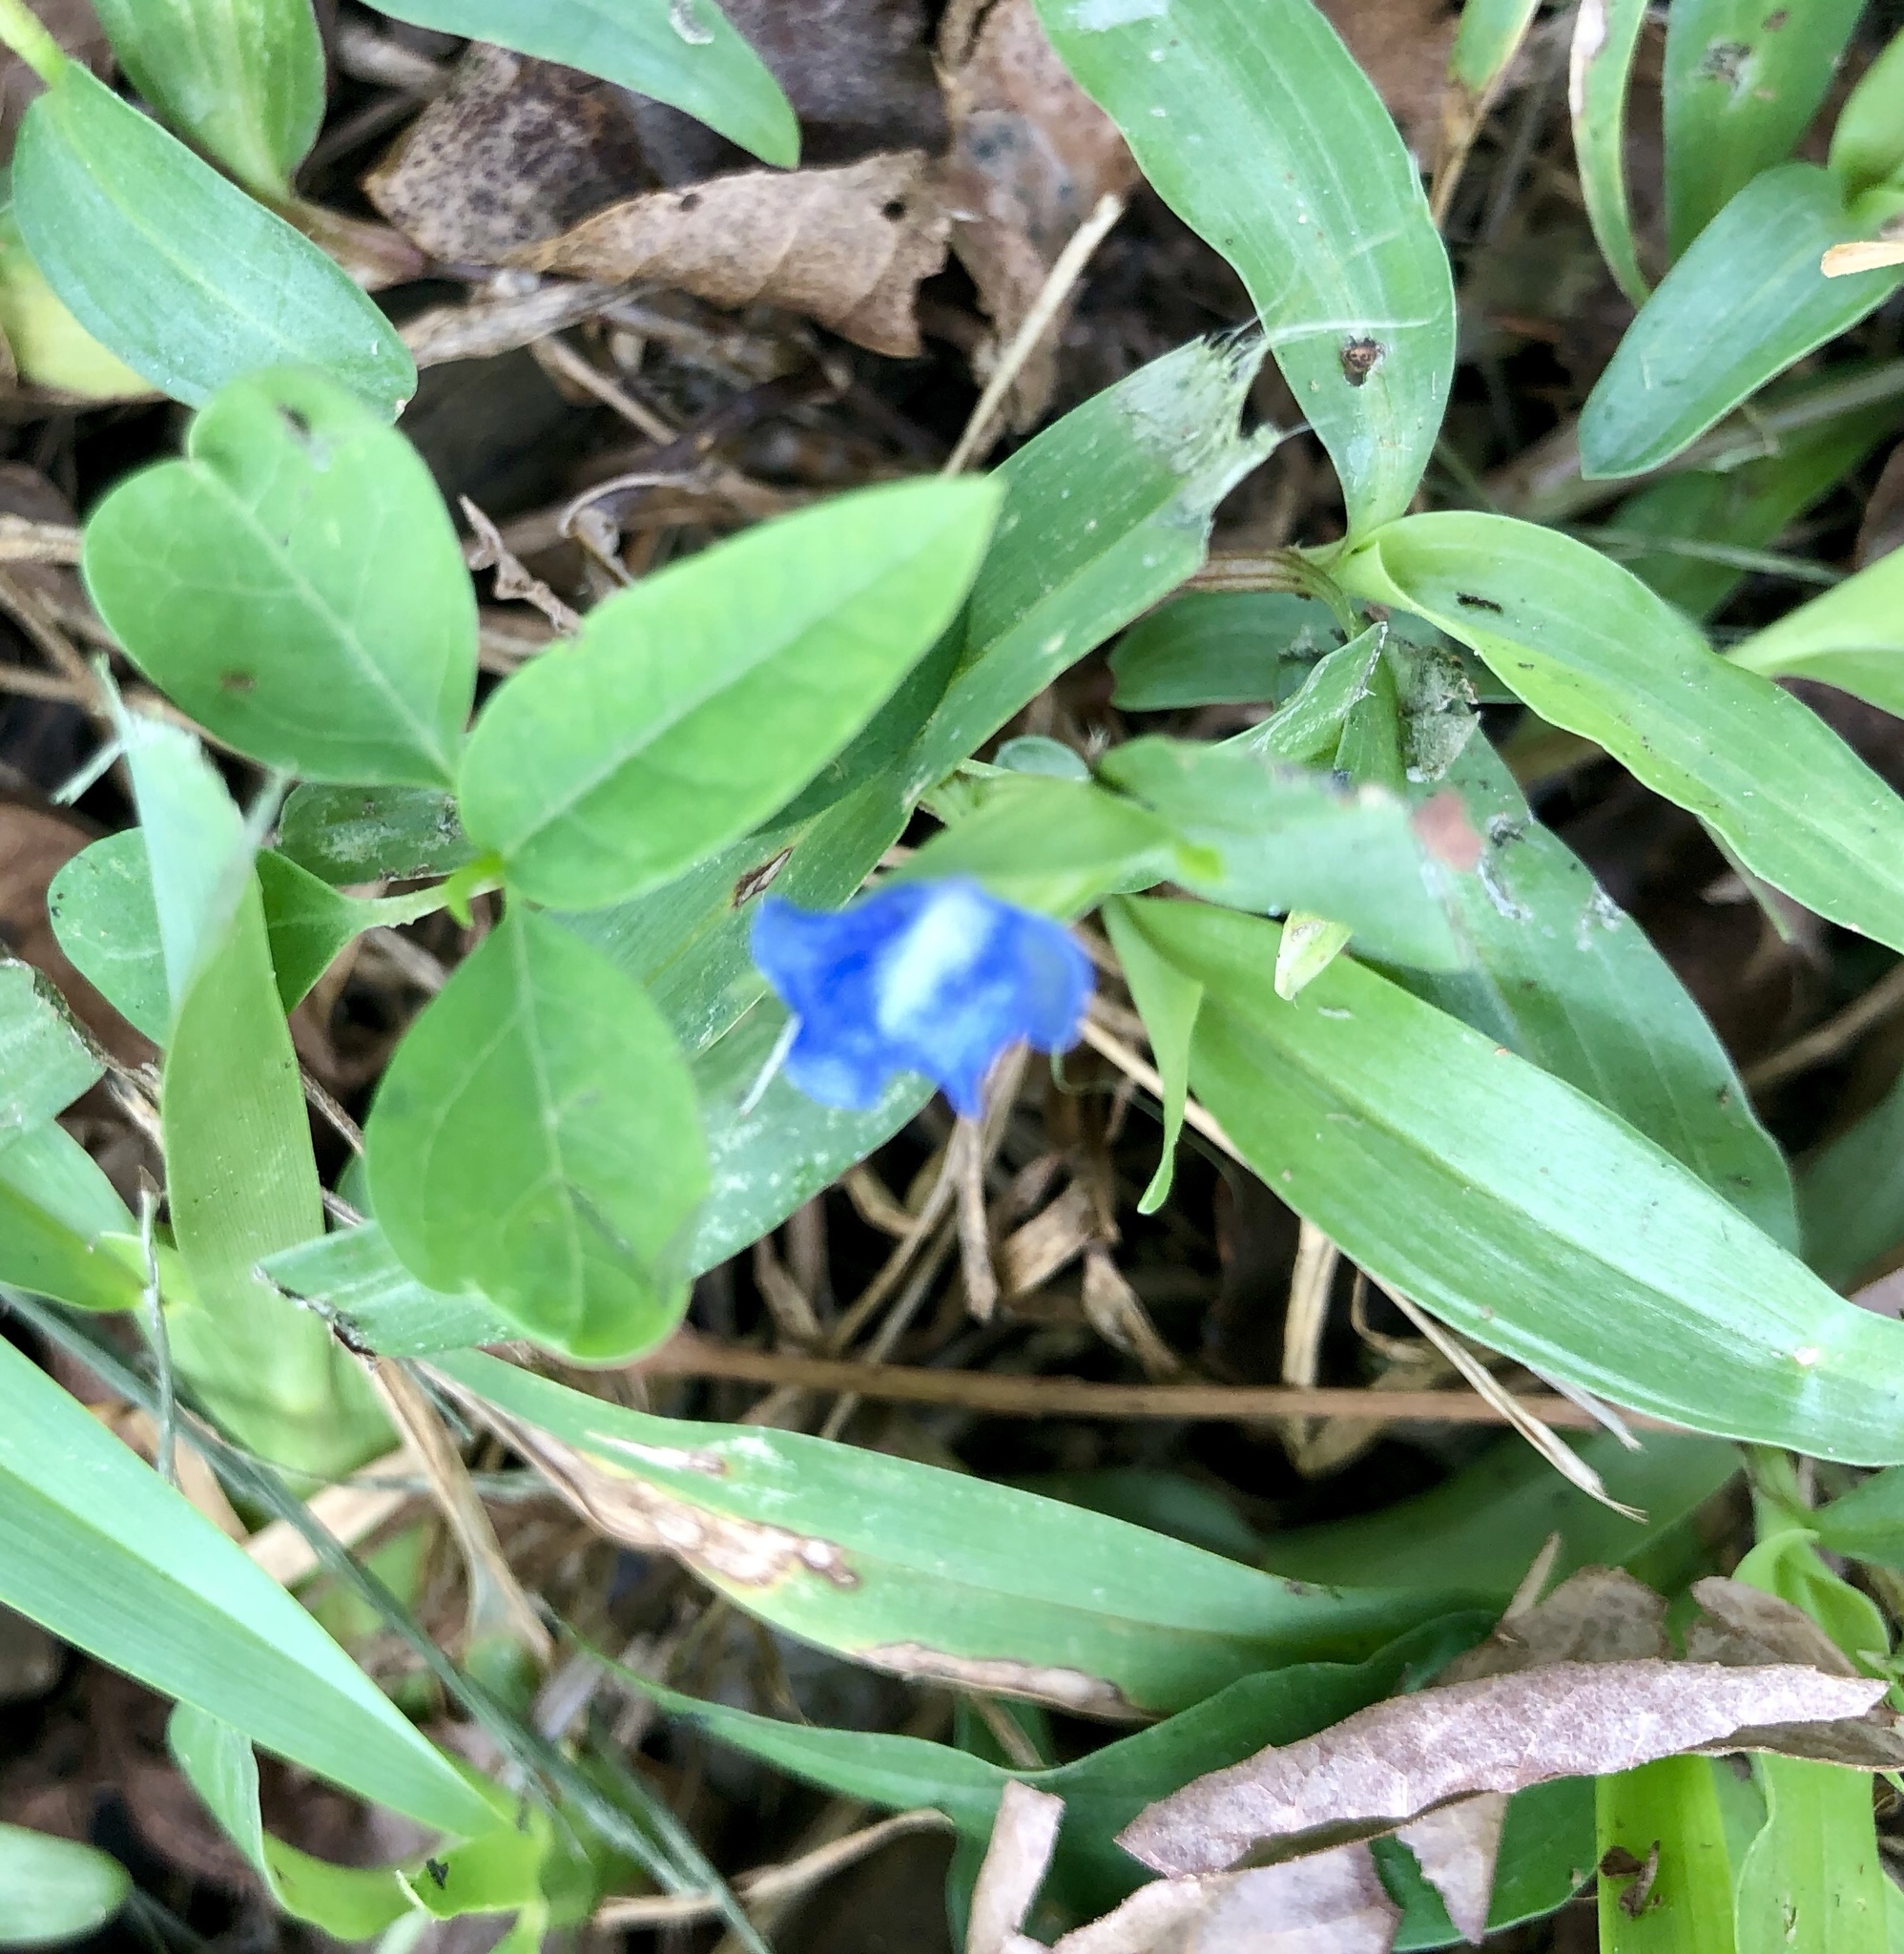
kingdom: Plantae
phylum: Tracheophyta
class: Liliopsida
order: Commelinales
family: Commelinaceae
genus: Commelina
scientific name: Commelina erecta
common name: Blousel blommetjie
